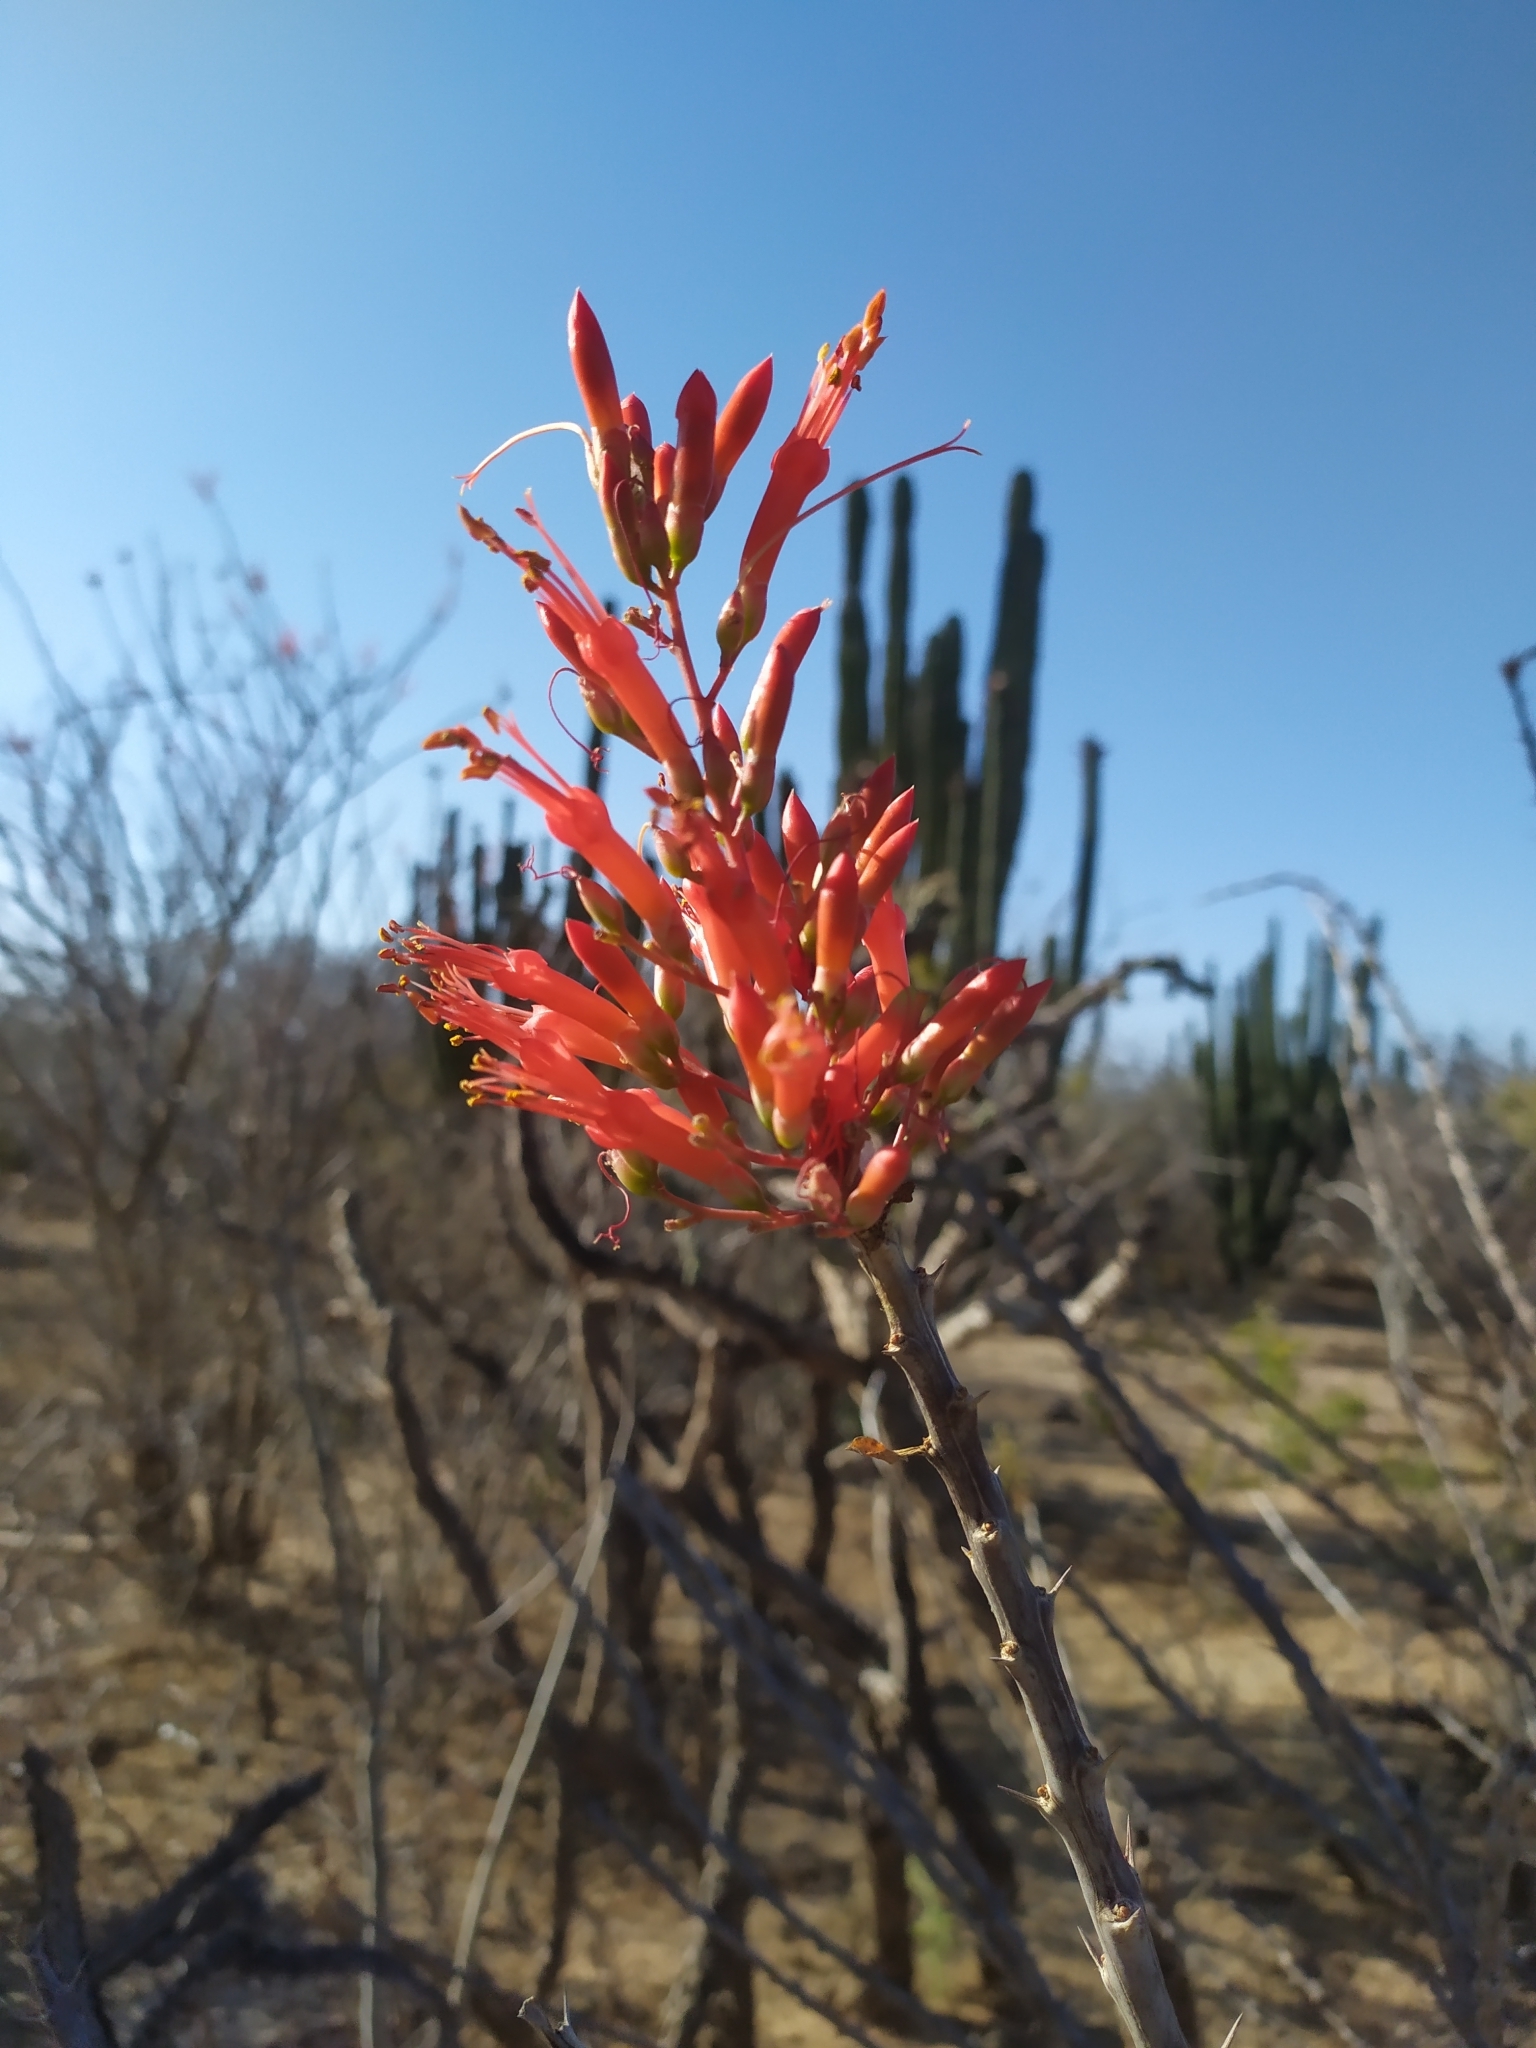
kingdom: Plantae
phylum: Tracheophyta
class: Magnoliopsida
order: Ericales
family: Fouquieriaceae
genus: Fouquieria
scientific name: Fouquieria diguetii
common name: Adam's tree
